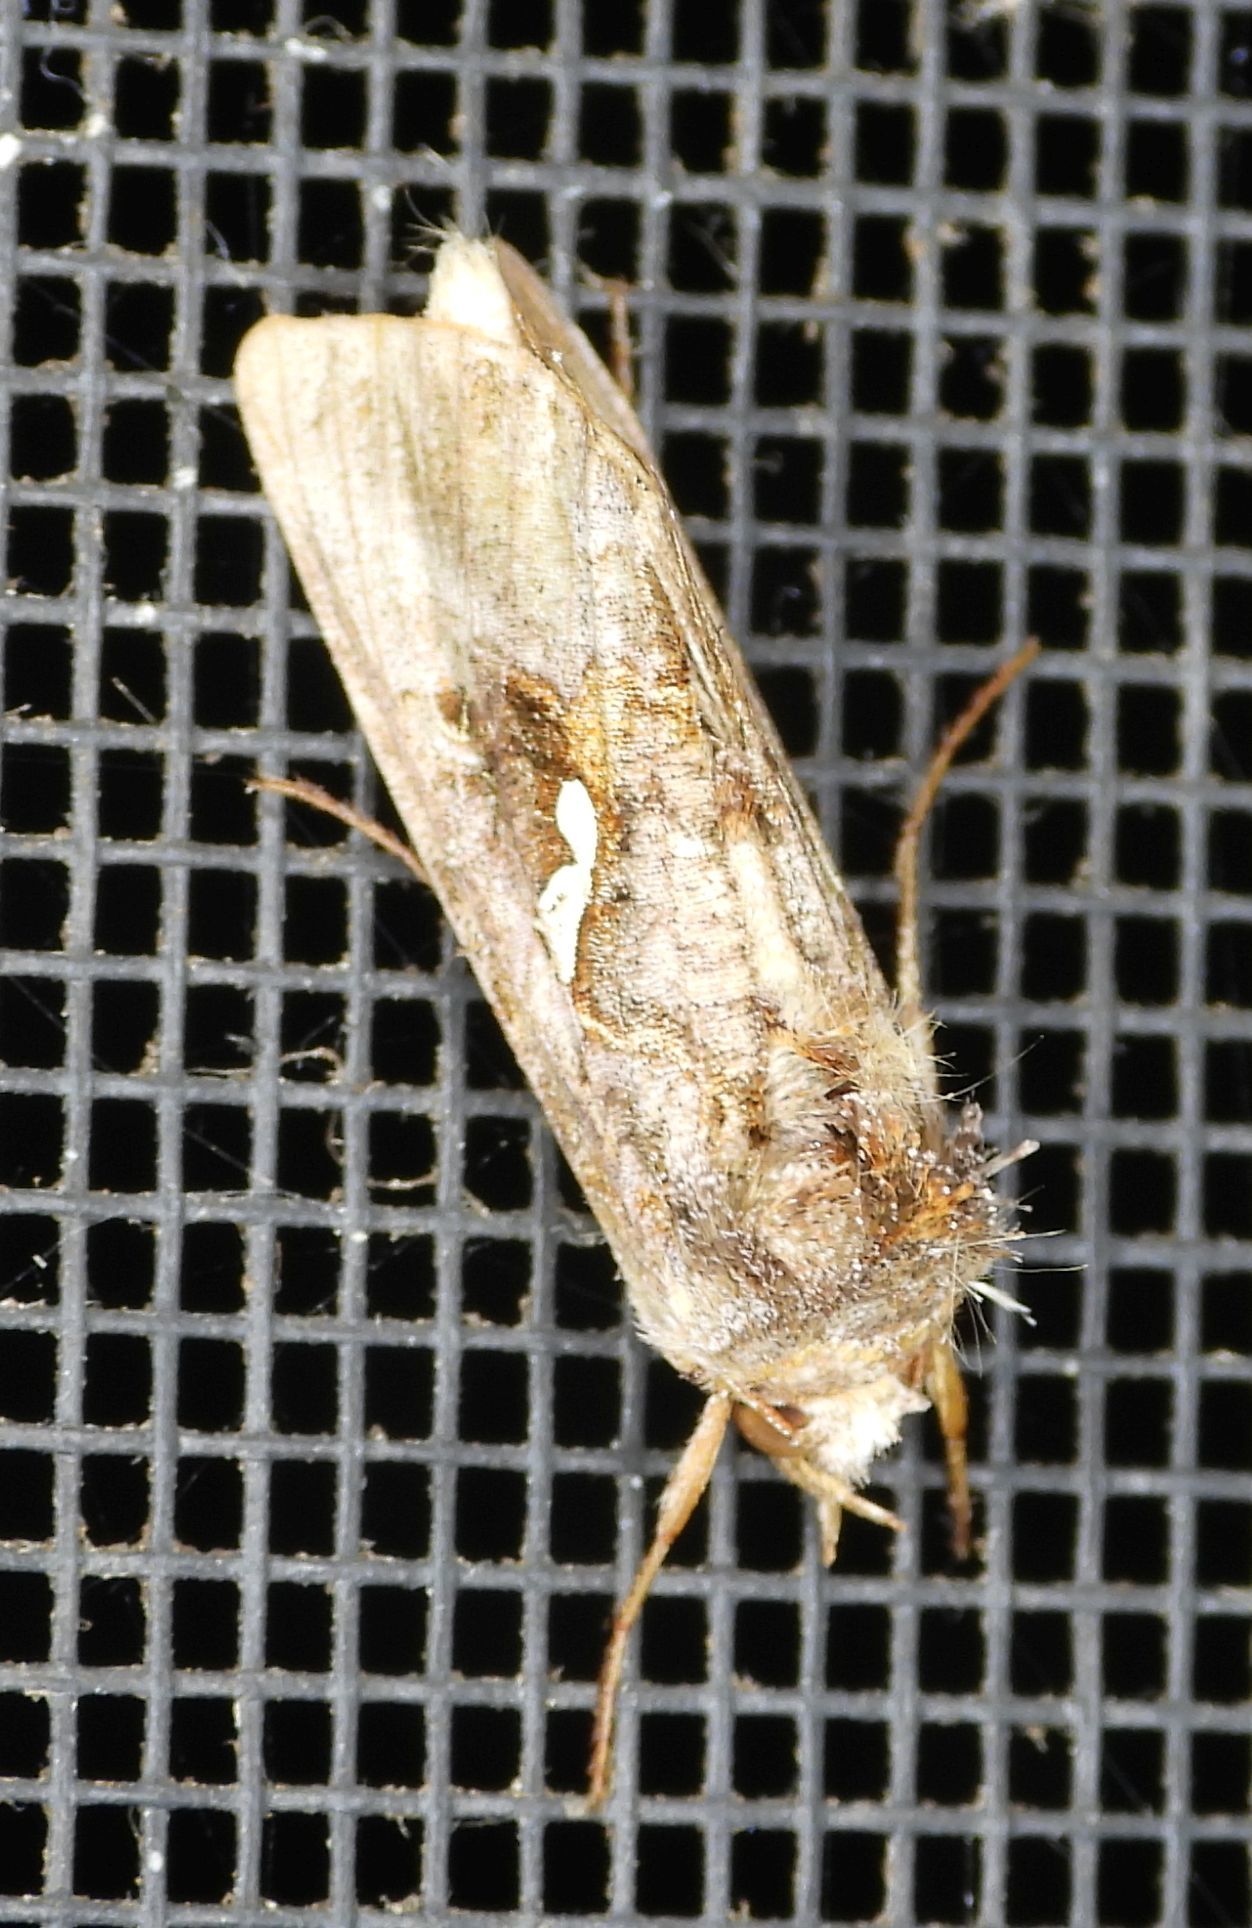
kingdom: Animalia
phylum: Arthropoda
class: Insecta
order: Lepidoptera
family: Noctuidae
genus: Autographa
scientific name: Autographa precationis
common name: Common looper moth
